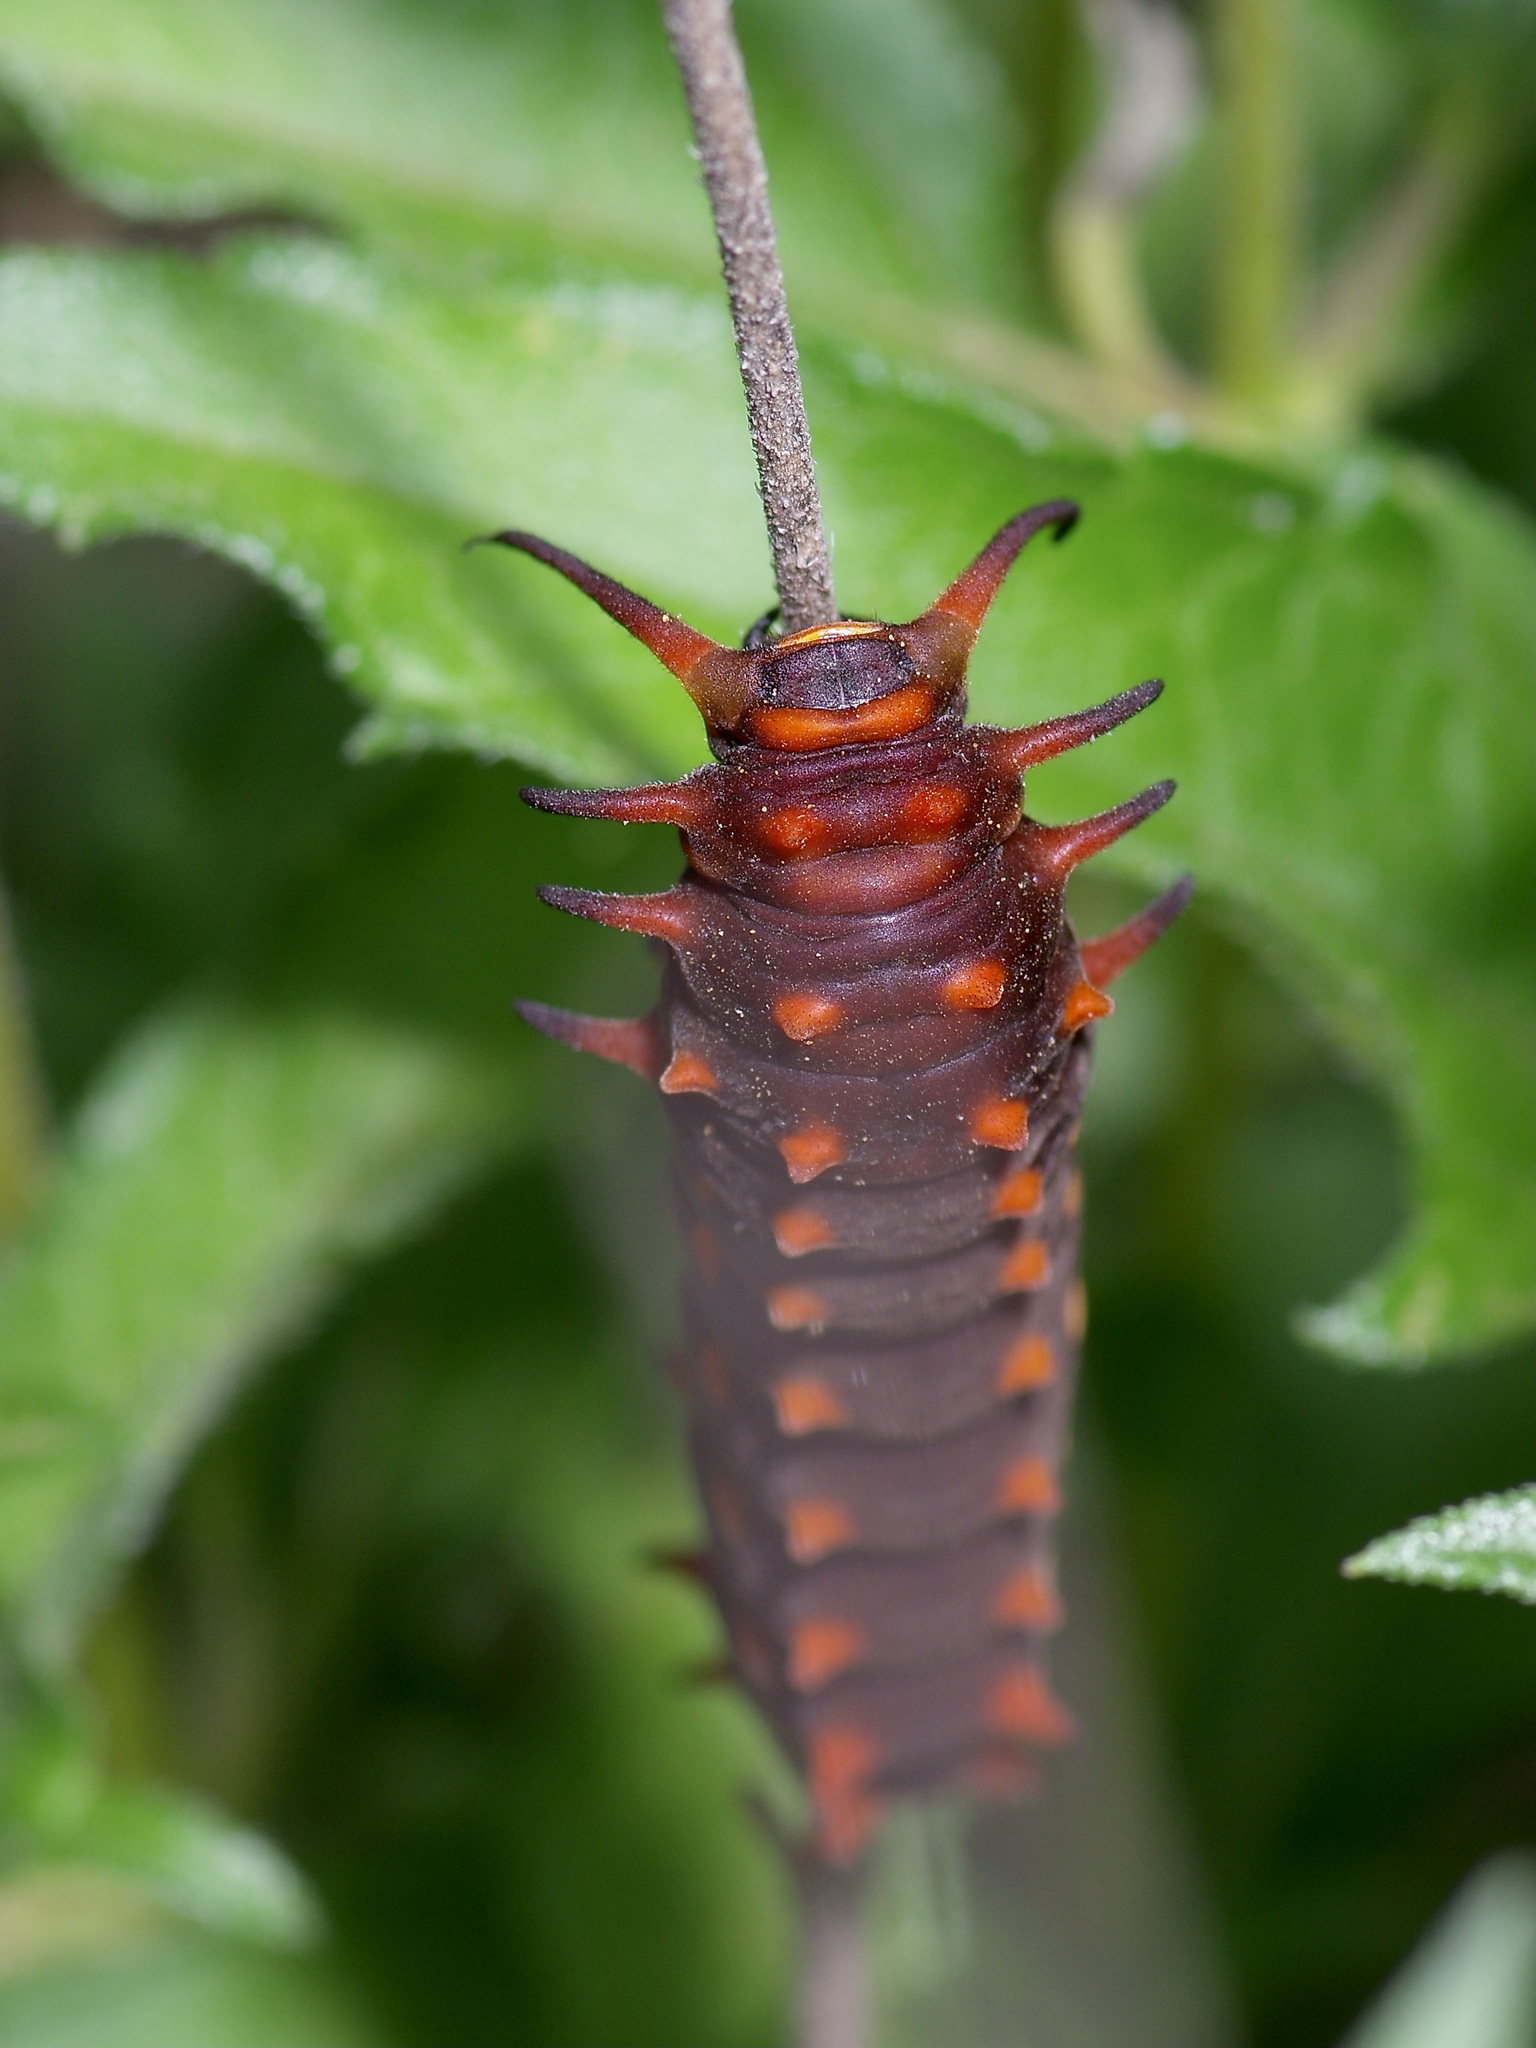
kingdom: Animalia
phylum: Arthropoda
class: Insecta
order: Lepidoptera
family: Papilionidae
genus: Battus
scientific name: Battus philenor
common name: Pipevine swallowtail
